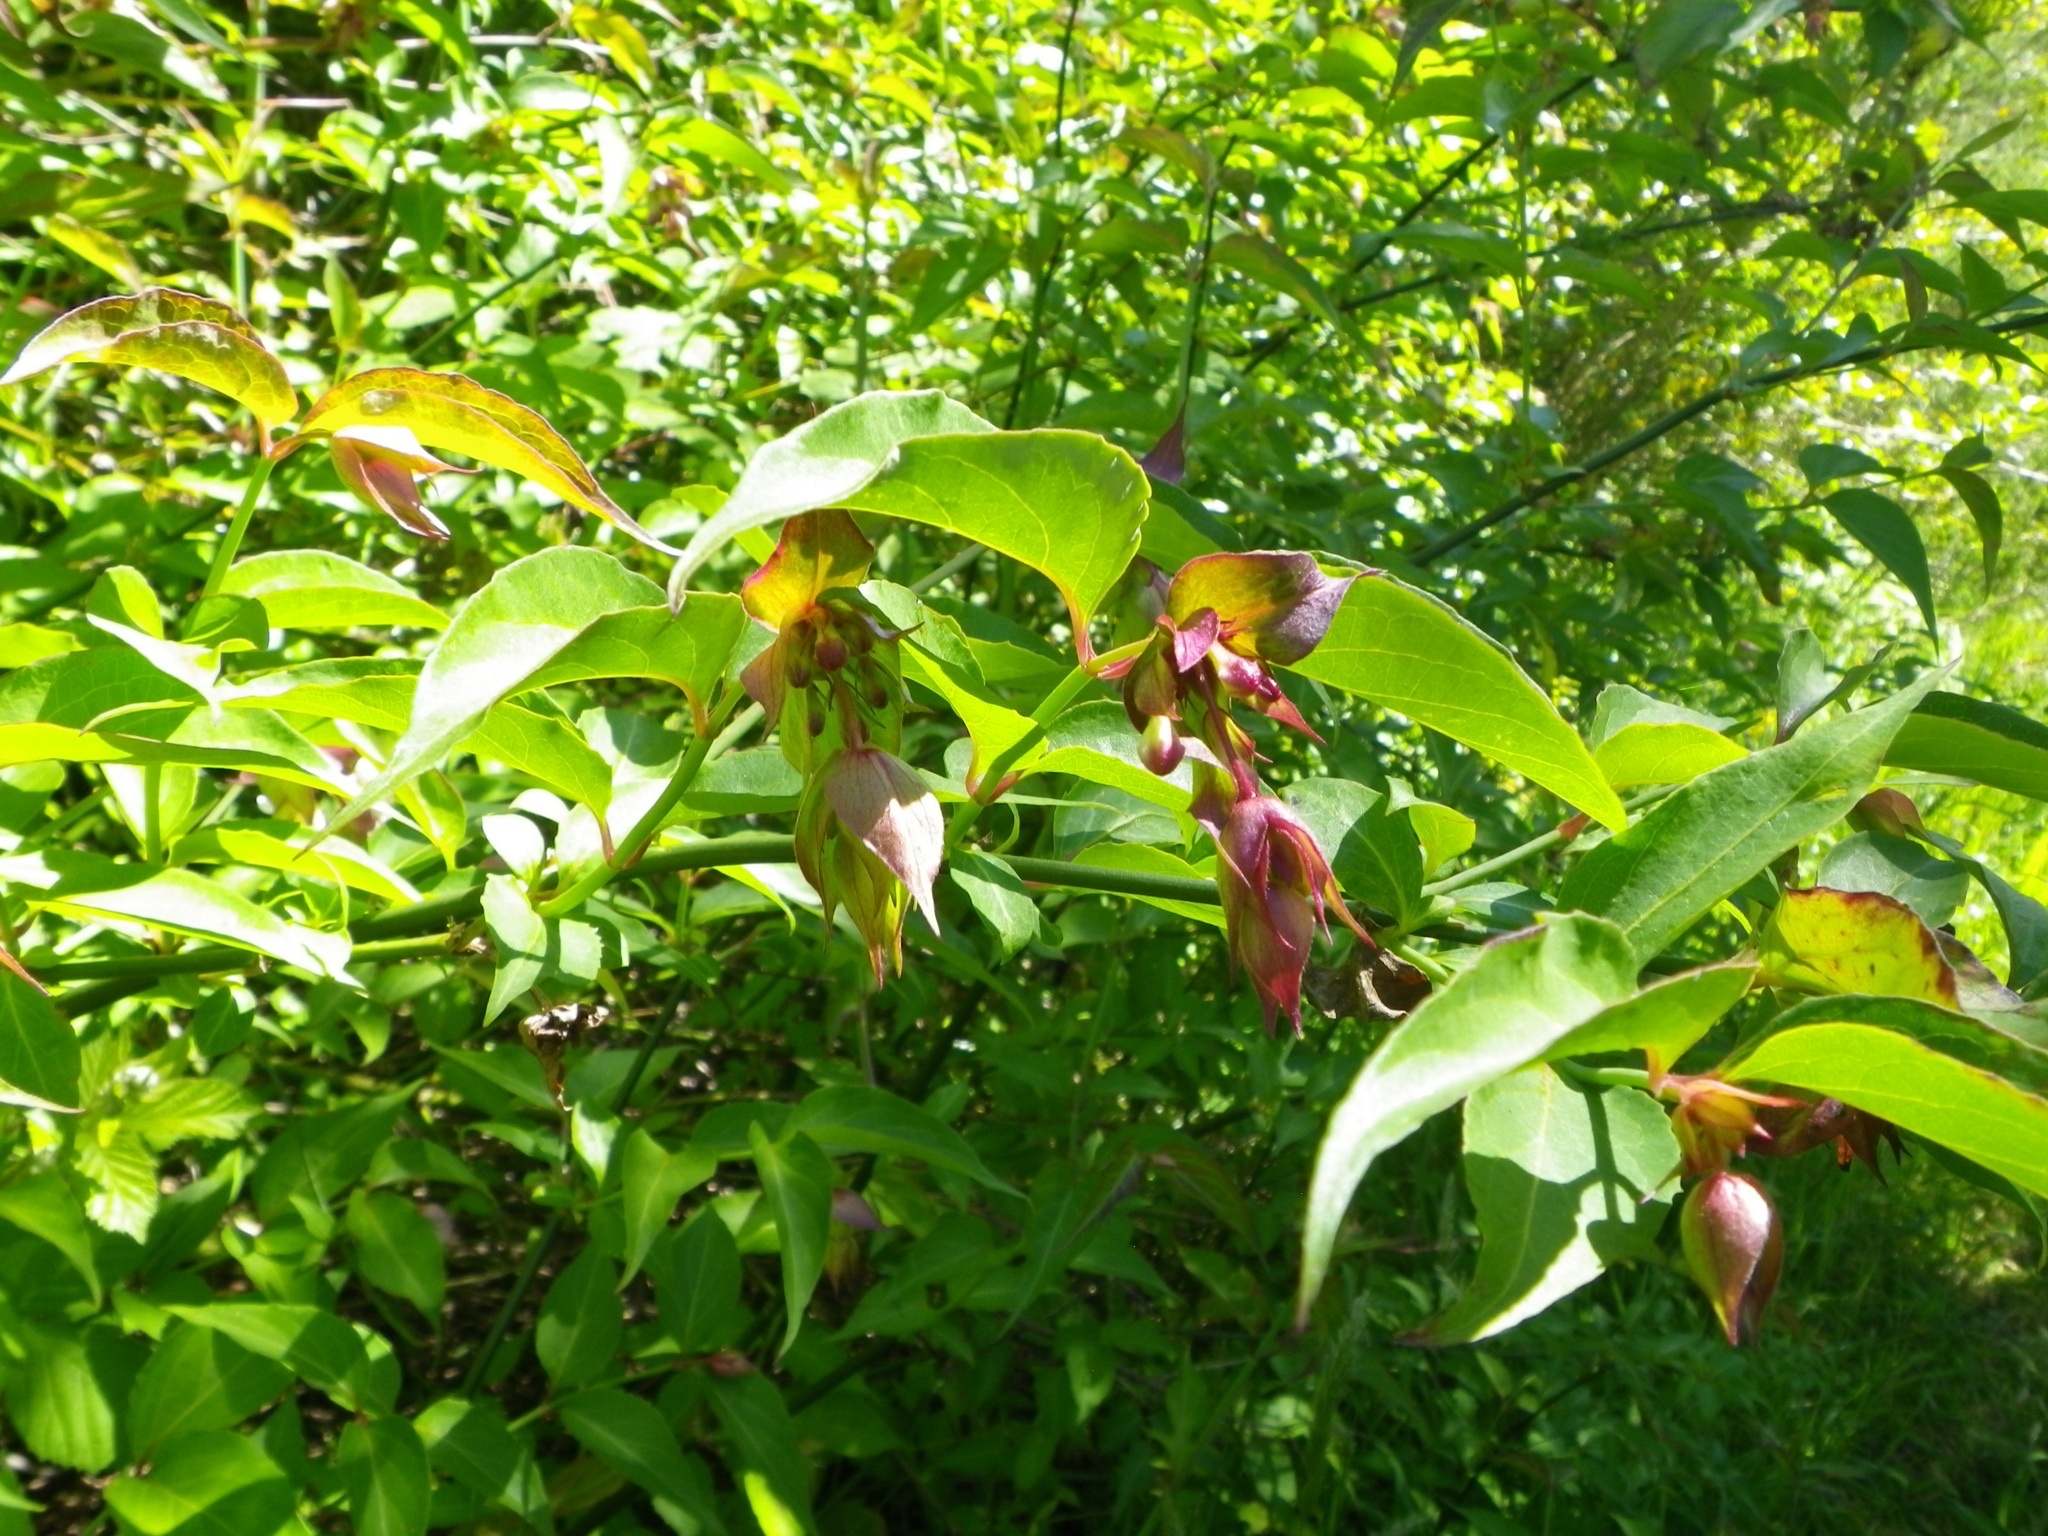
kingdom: Plantae
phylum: Tracheophyta
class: Magnoliopsida
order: Dipsacales
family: Caprifoliaceae
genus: Leycesteria
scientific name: Leycesteria formosa
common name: Himalayan honeysuckle
